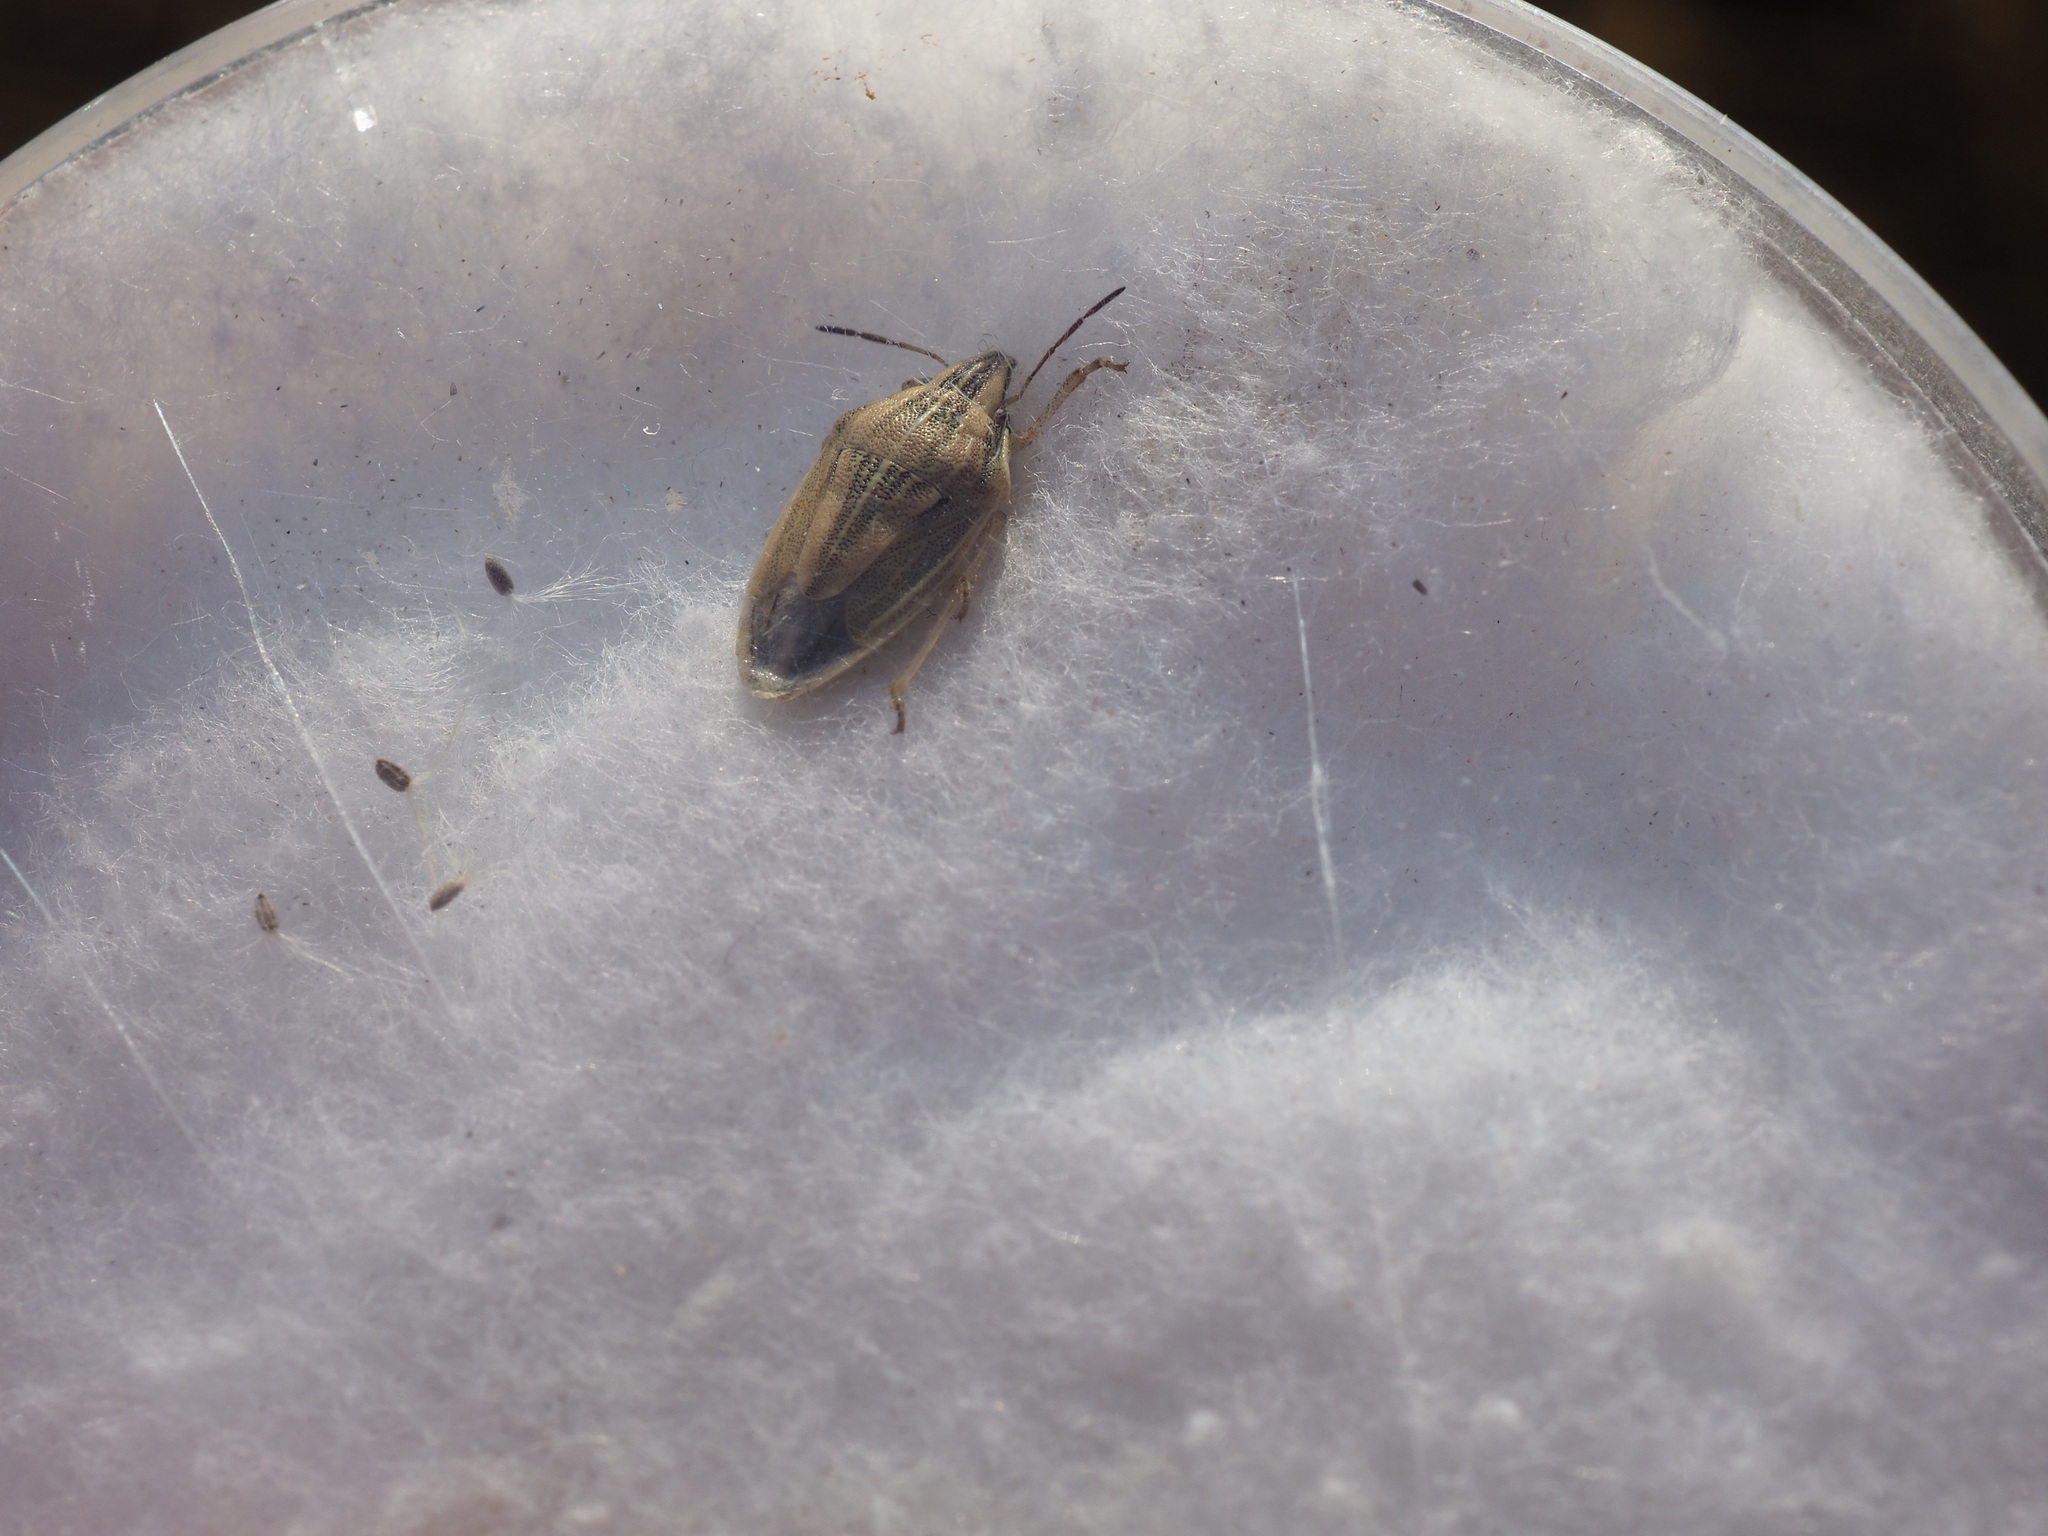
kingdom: Animalia
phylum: Arthropoda
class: Insecta
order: Hemiptera
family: Pentatomidae
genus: Aelia
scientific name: Aelia acuminata
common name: Bishop's mitre
